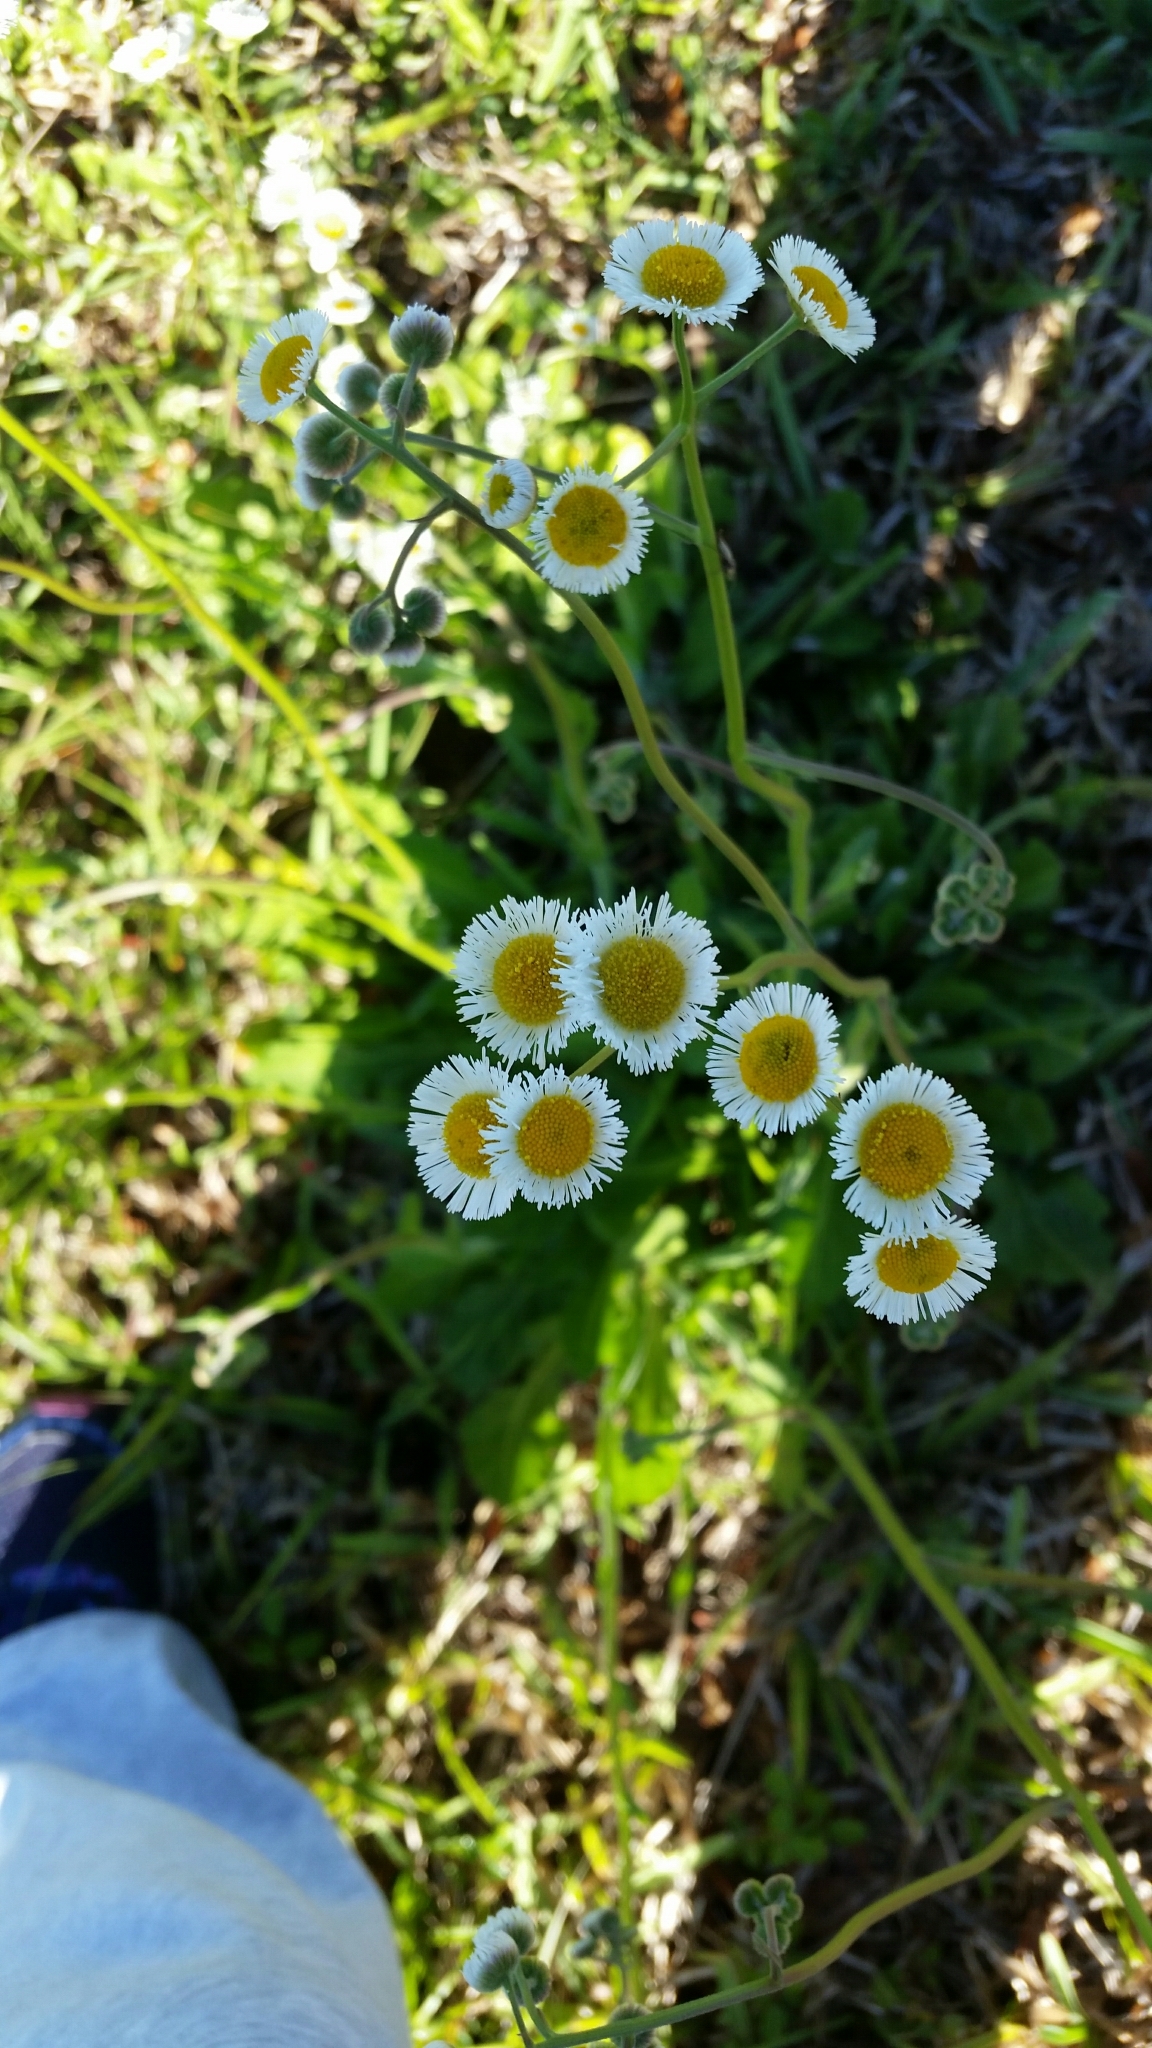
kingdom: Plantae
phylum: Tracheophyta
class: Magnoliopsida
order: Asterales
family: Asteraceae
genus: Erigeron
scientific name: Erigeron quercifolius
